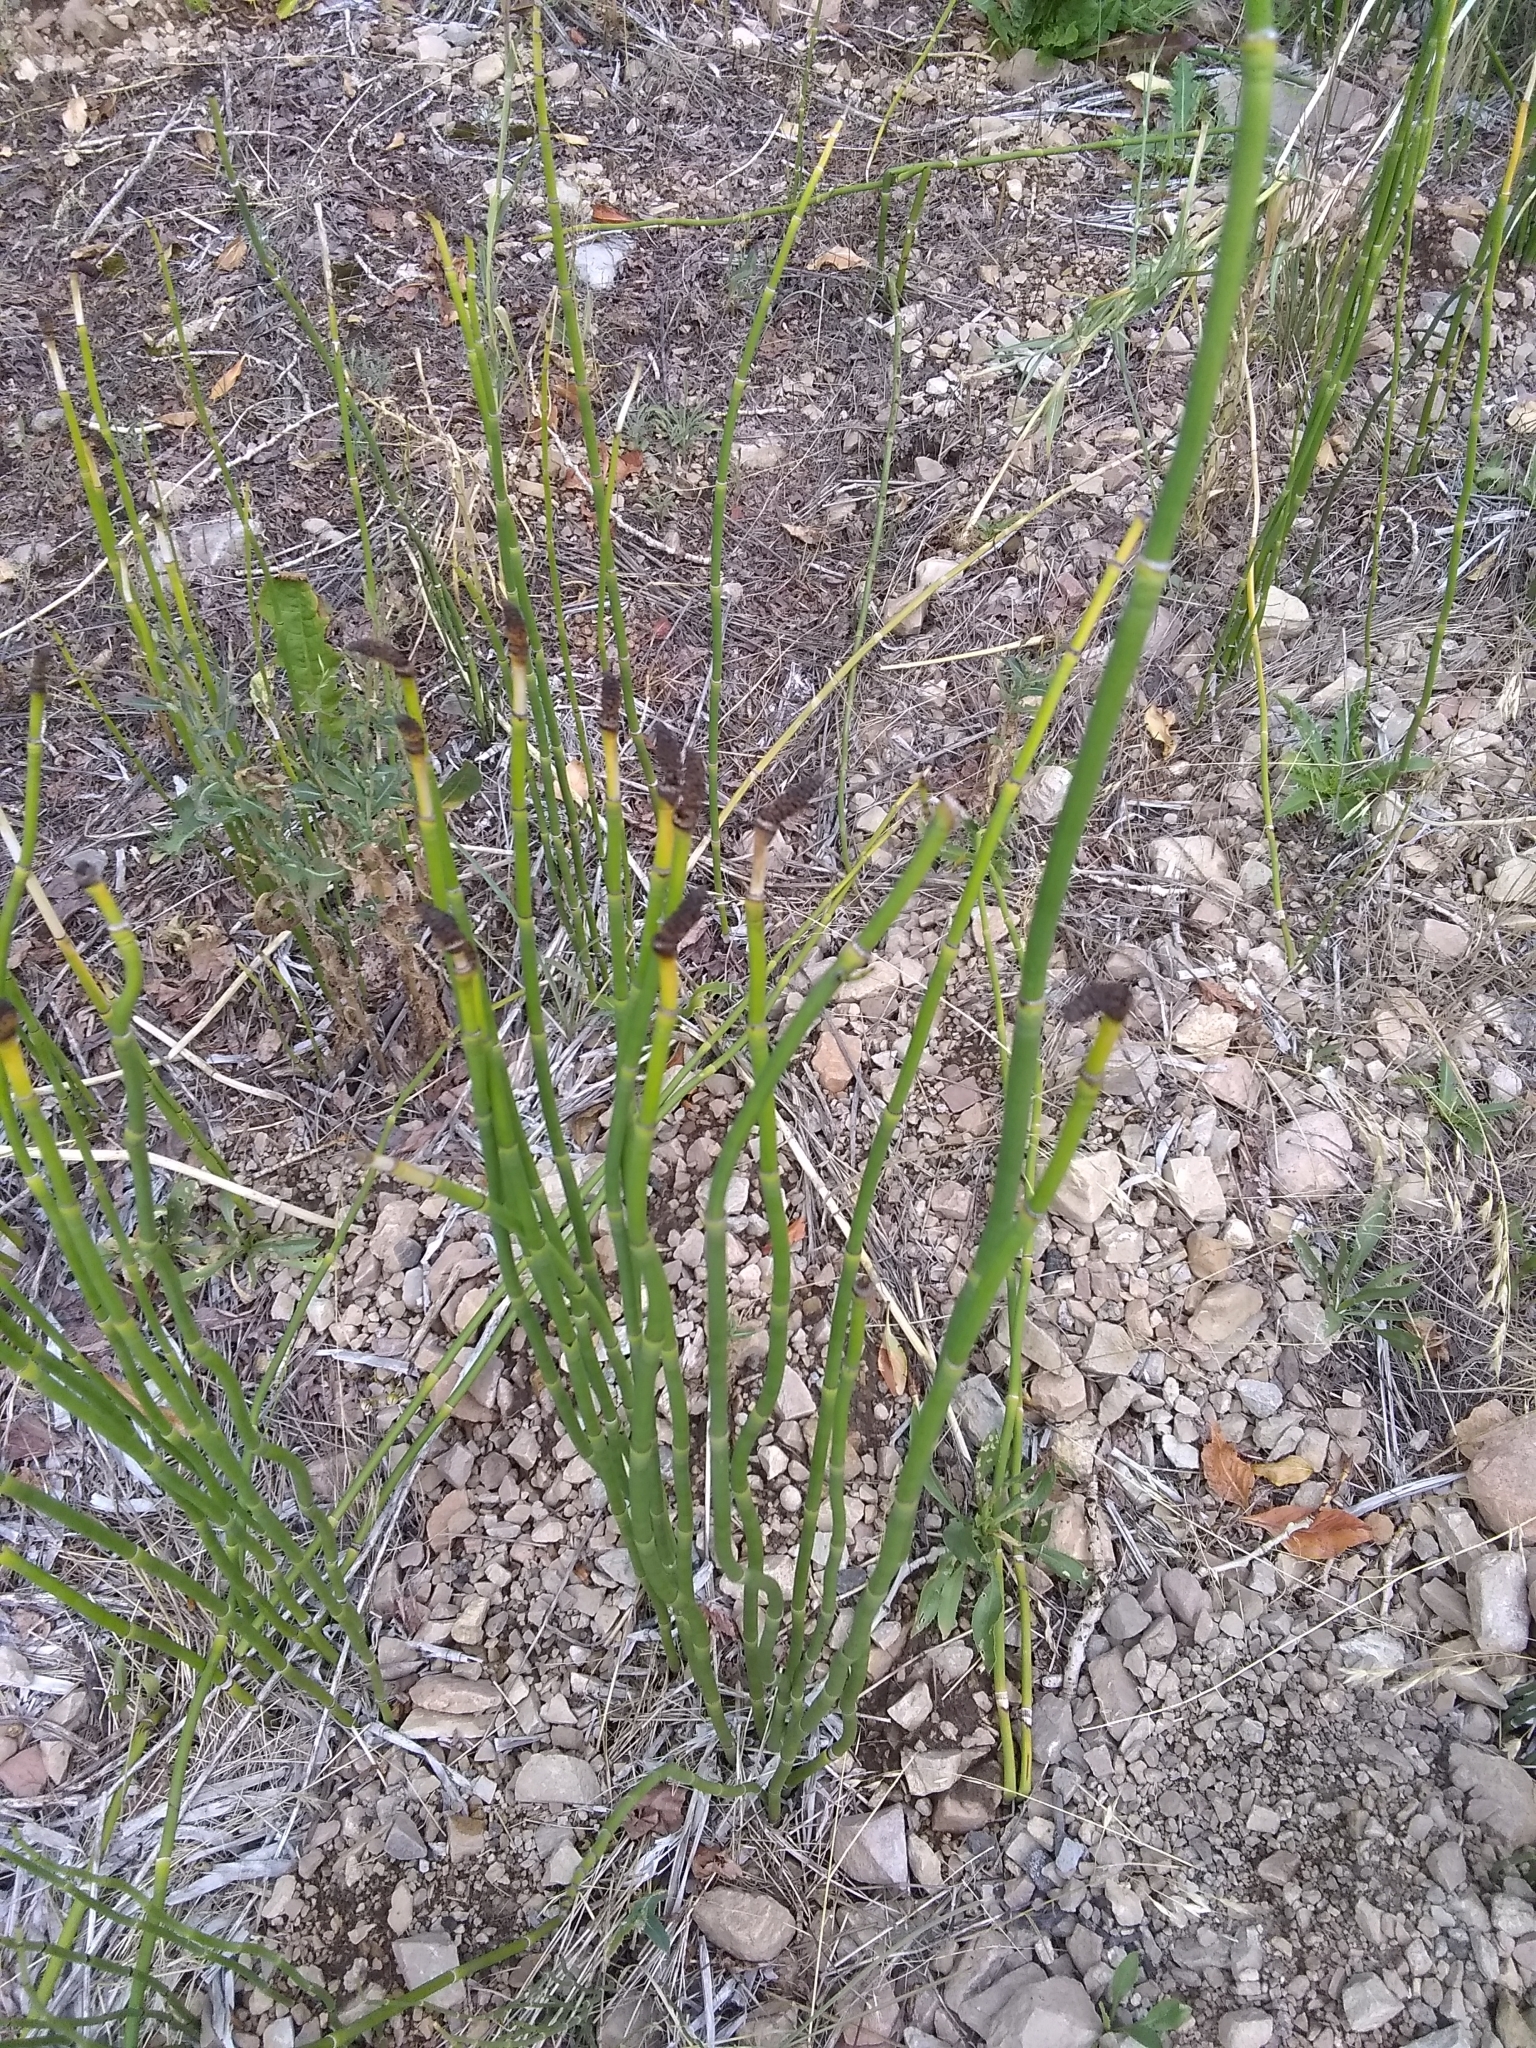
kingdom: Plantae
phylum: Tracheophyta
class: Polypodiopsida
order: Equisetales
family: Equisetaceae
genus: Equisetum
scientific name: Equisetum laevigatum
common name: Smooth scouring-rush
